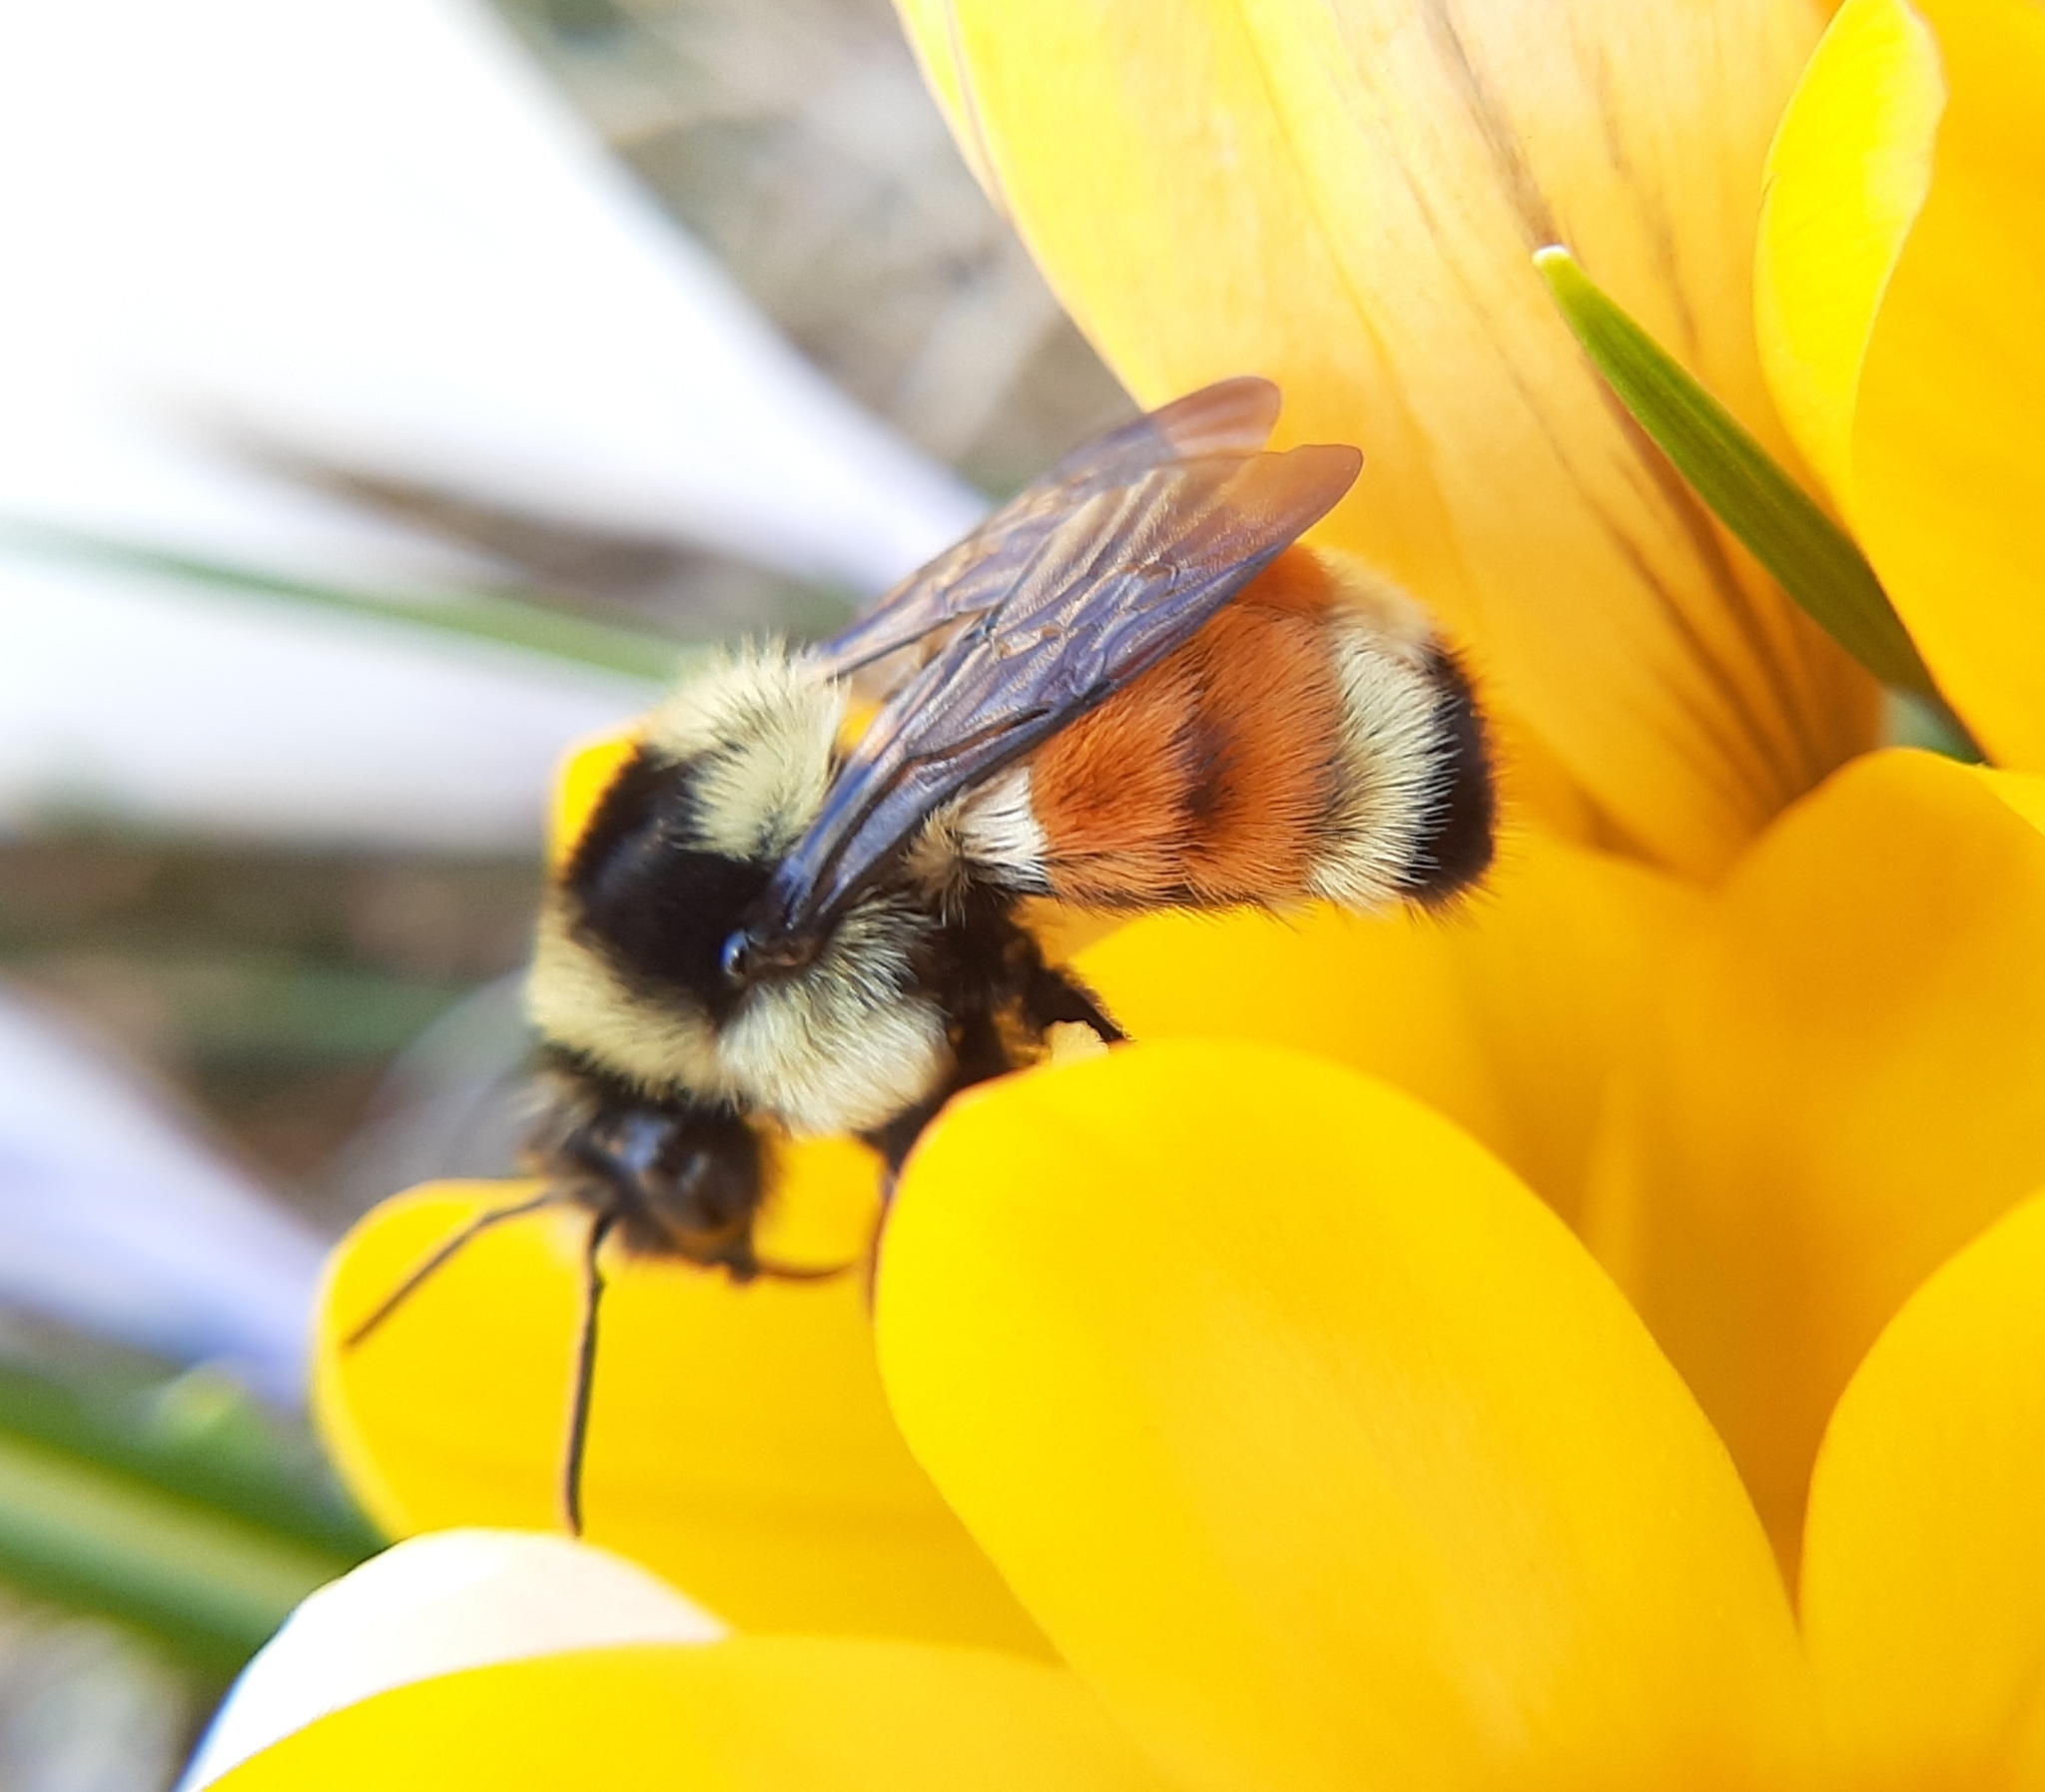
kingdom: Animalia
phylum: Arthropoda
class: Insecta
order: Hymenoptera
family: Apidae
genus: Bombus
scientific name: Bombus ternarius
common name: Tri-colored bumble bee
